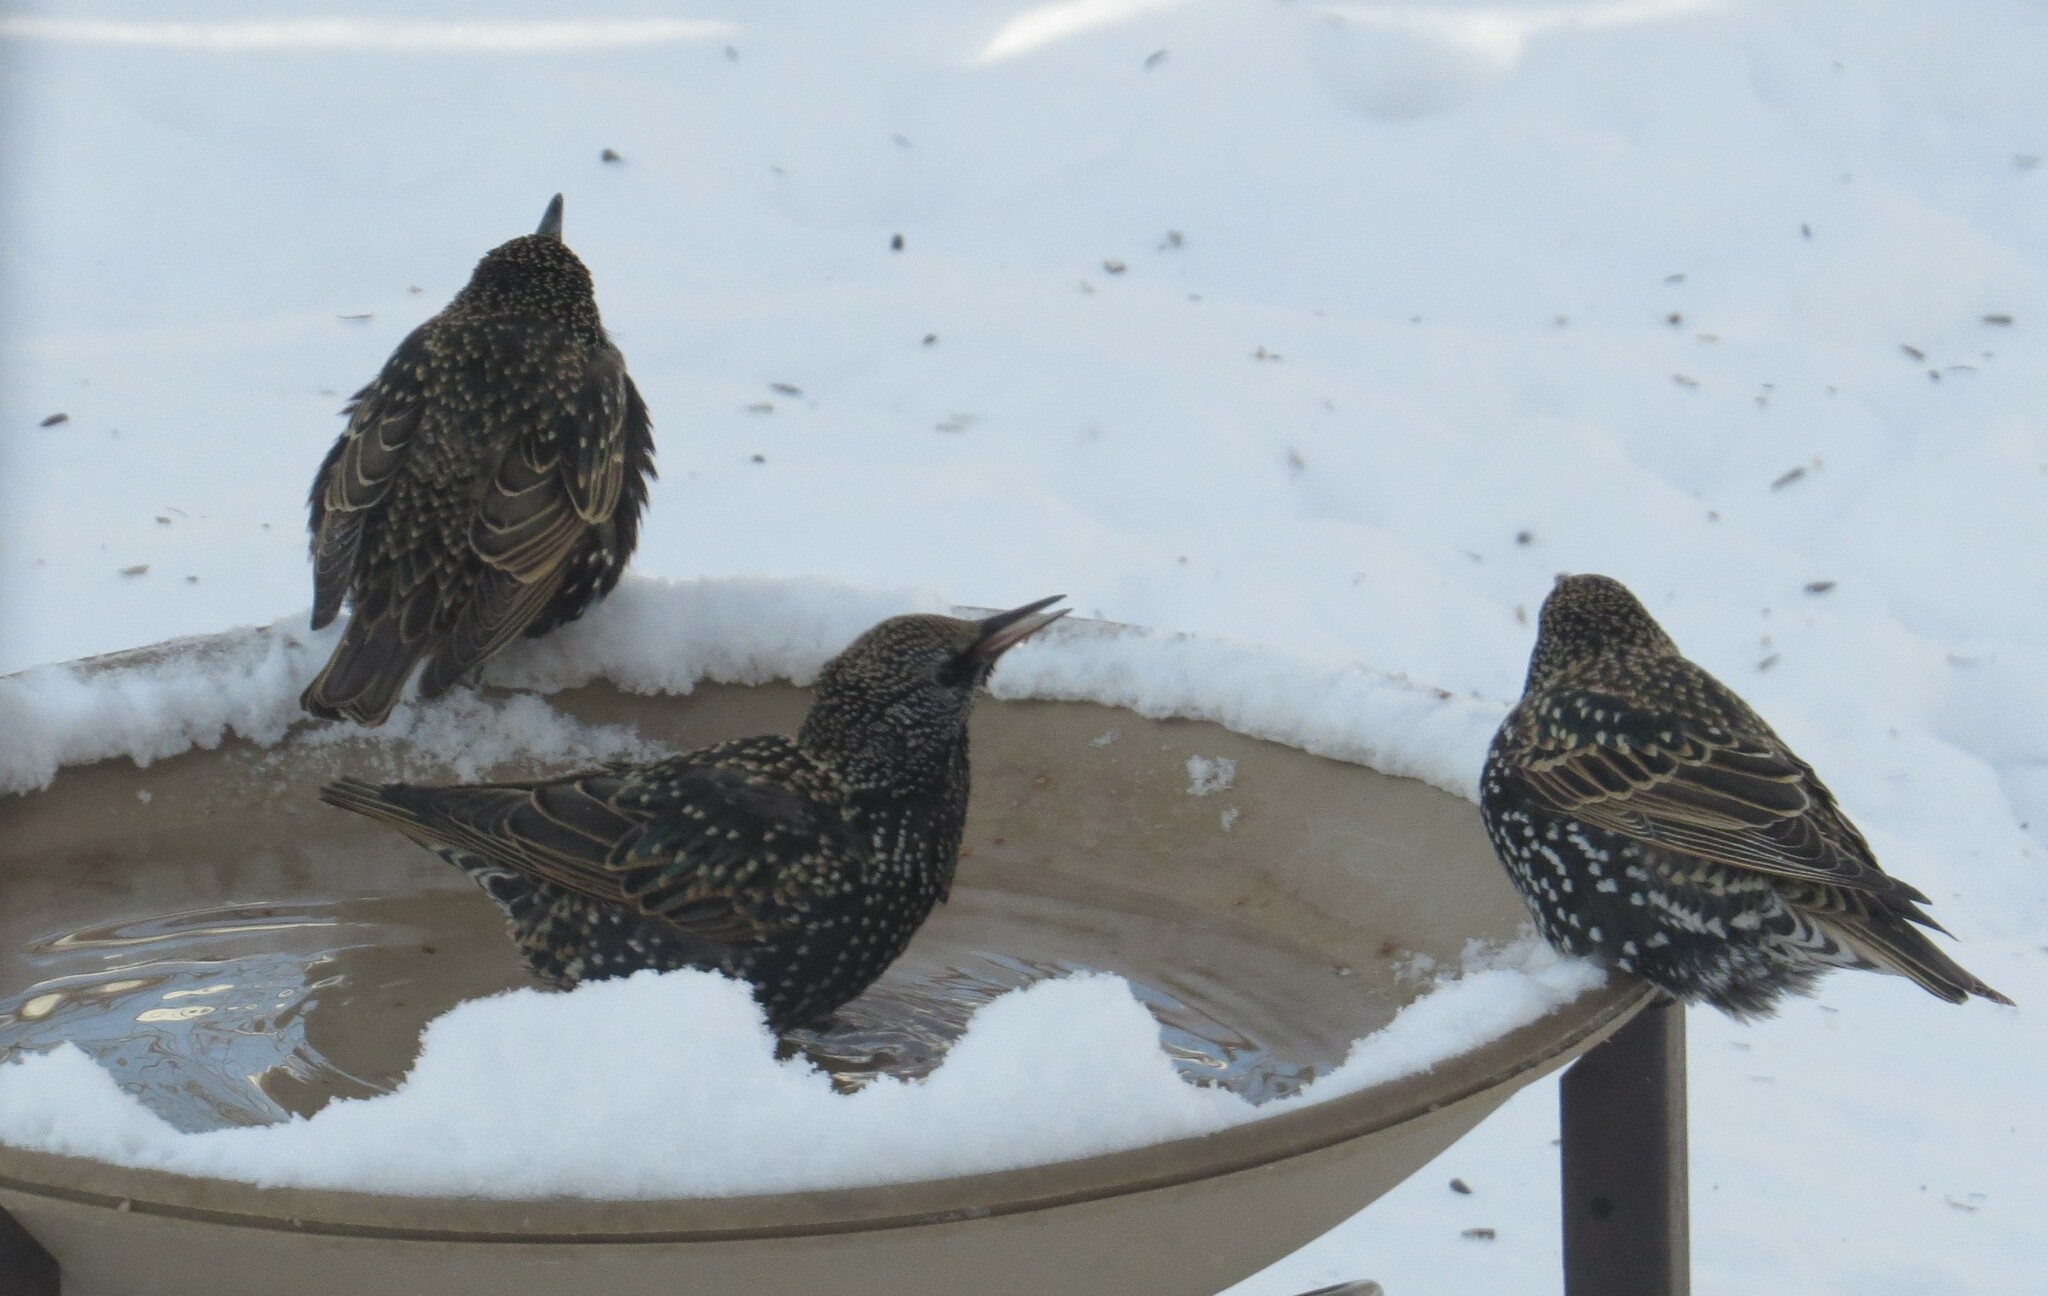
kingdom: Animalia
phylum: Chordata
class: Aves
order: Passeriformes
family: Sturnidae
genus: Sturnus
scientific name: Sturnus vulgaris
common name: Common starling
